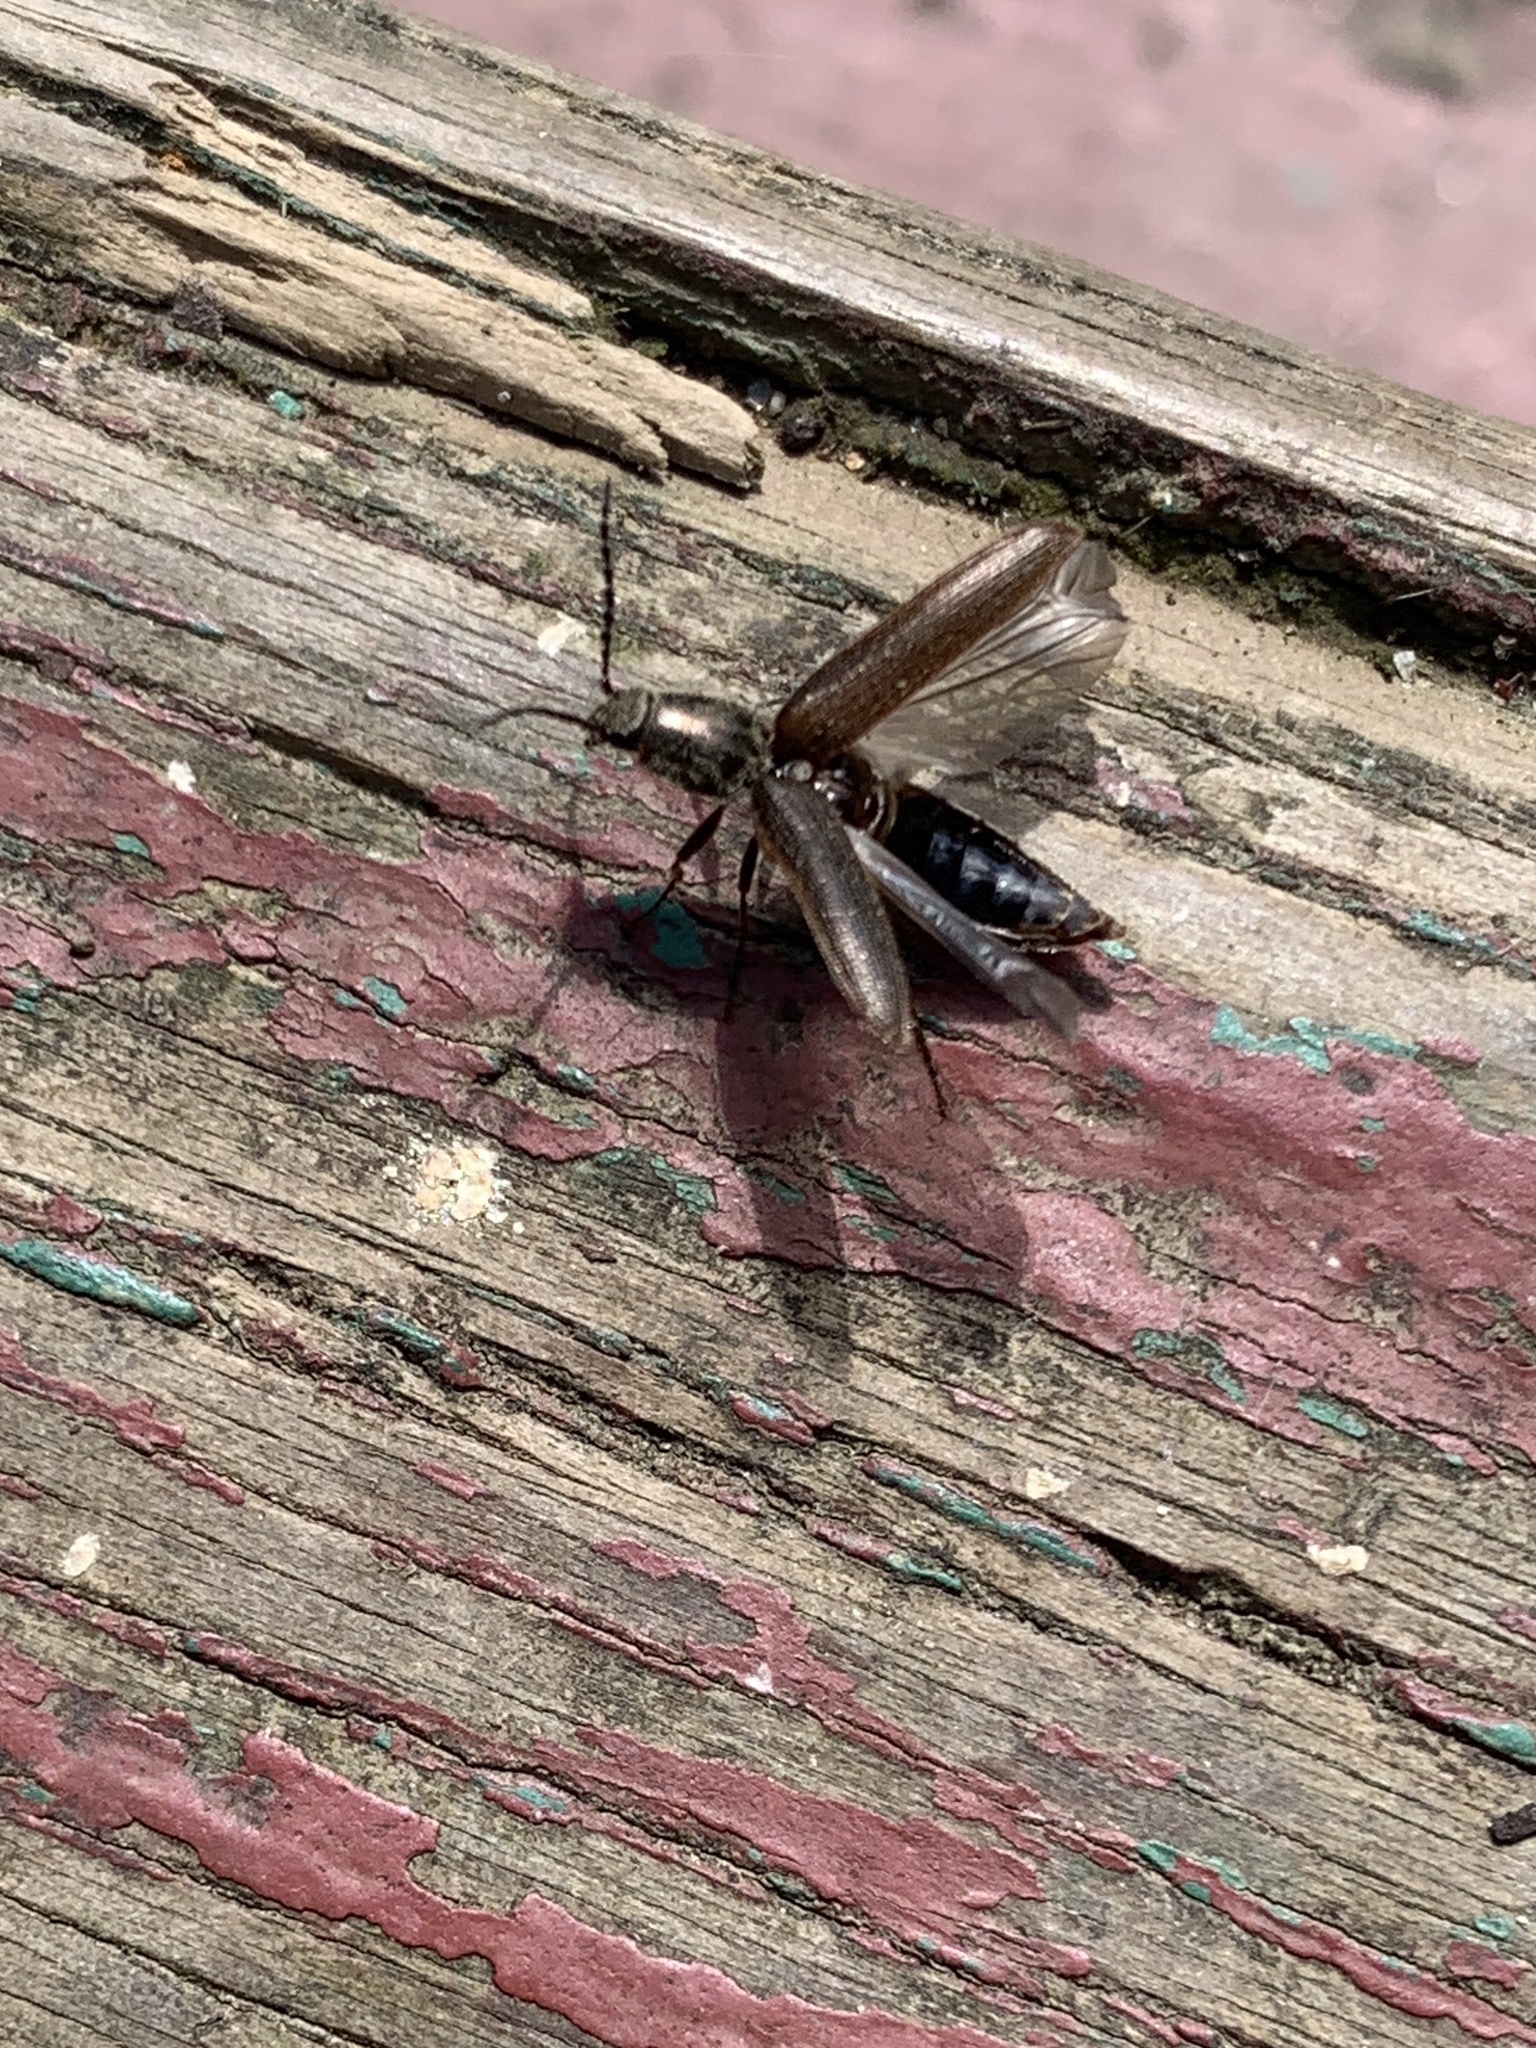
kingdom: Animalia
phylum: Arthropoda
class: Insecta
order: Coleoptera
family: Elateridae
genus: Sylvanelater
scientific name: Sylvanelater cylindriformis
